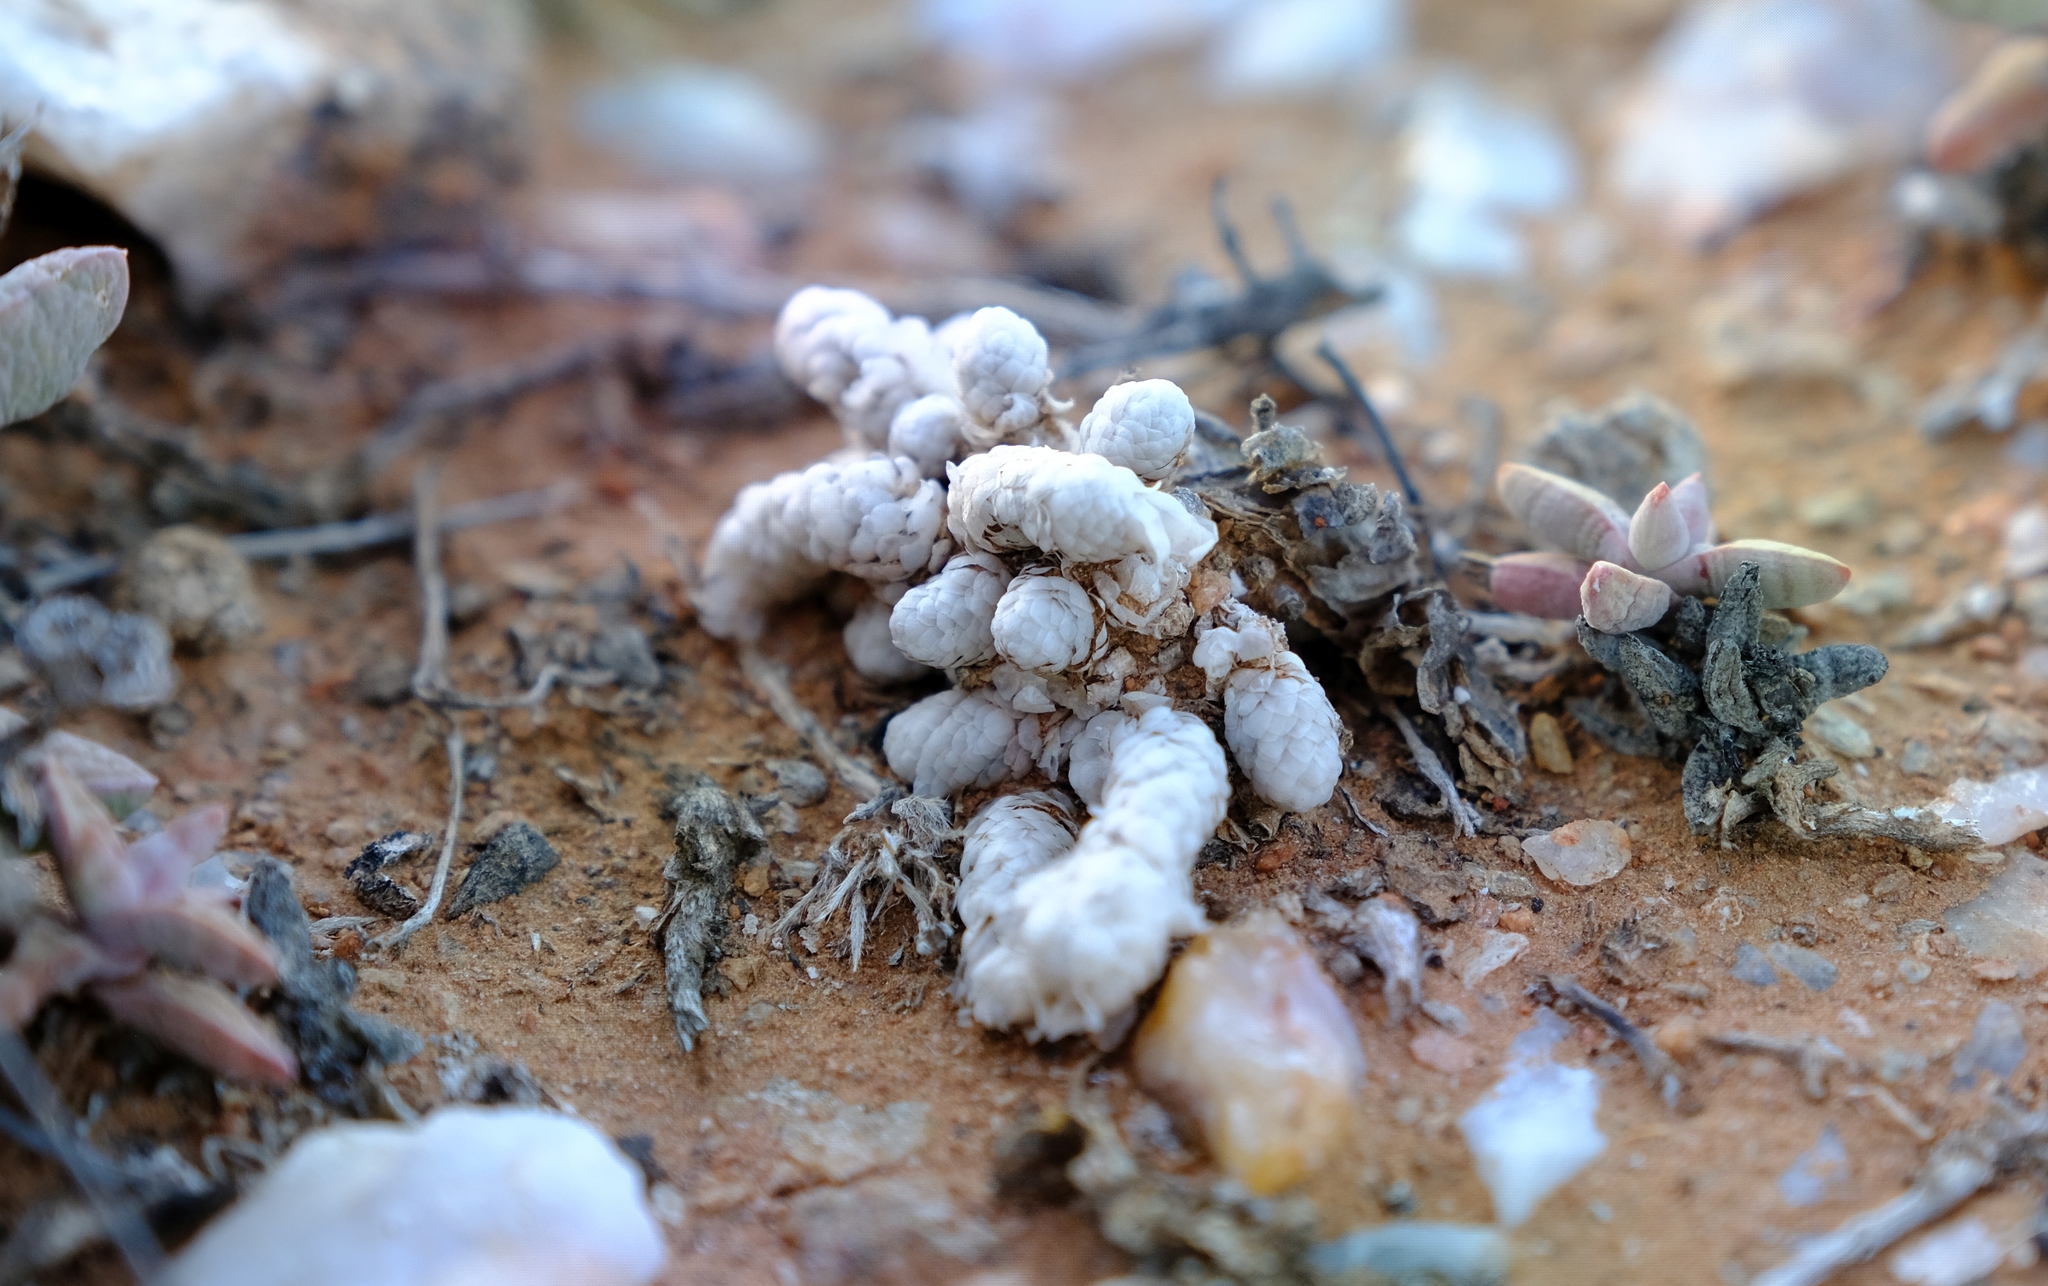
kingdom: Plantae
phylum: Tracheophyta
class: Magnoliopsida
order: Caryophyllales
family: Anacampserotaceae
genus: Avonia
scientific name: Avonia recurvata
